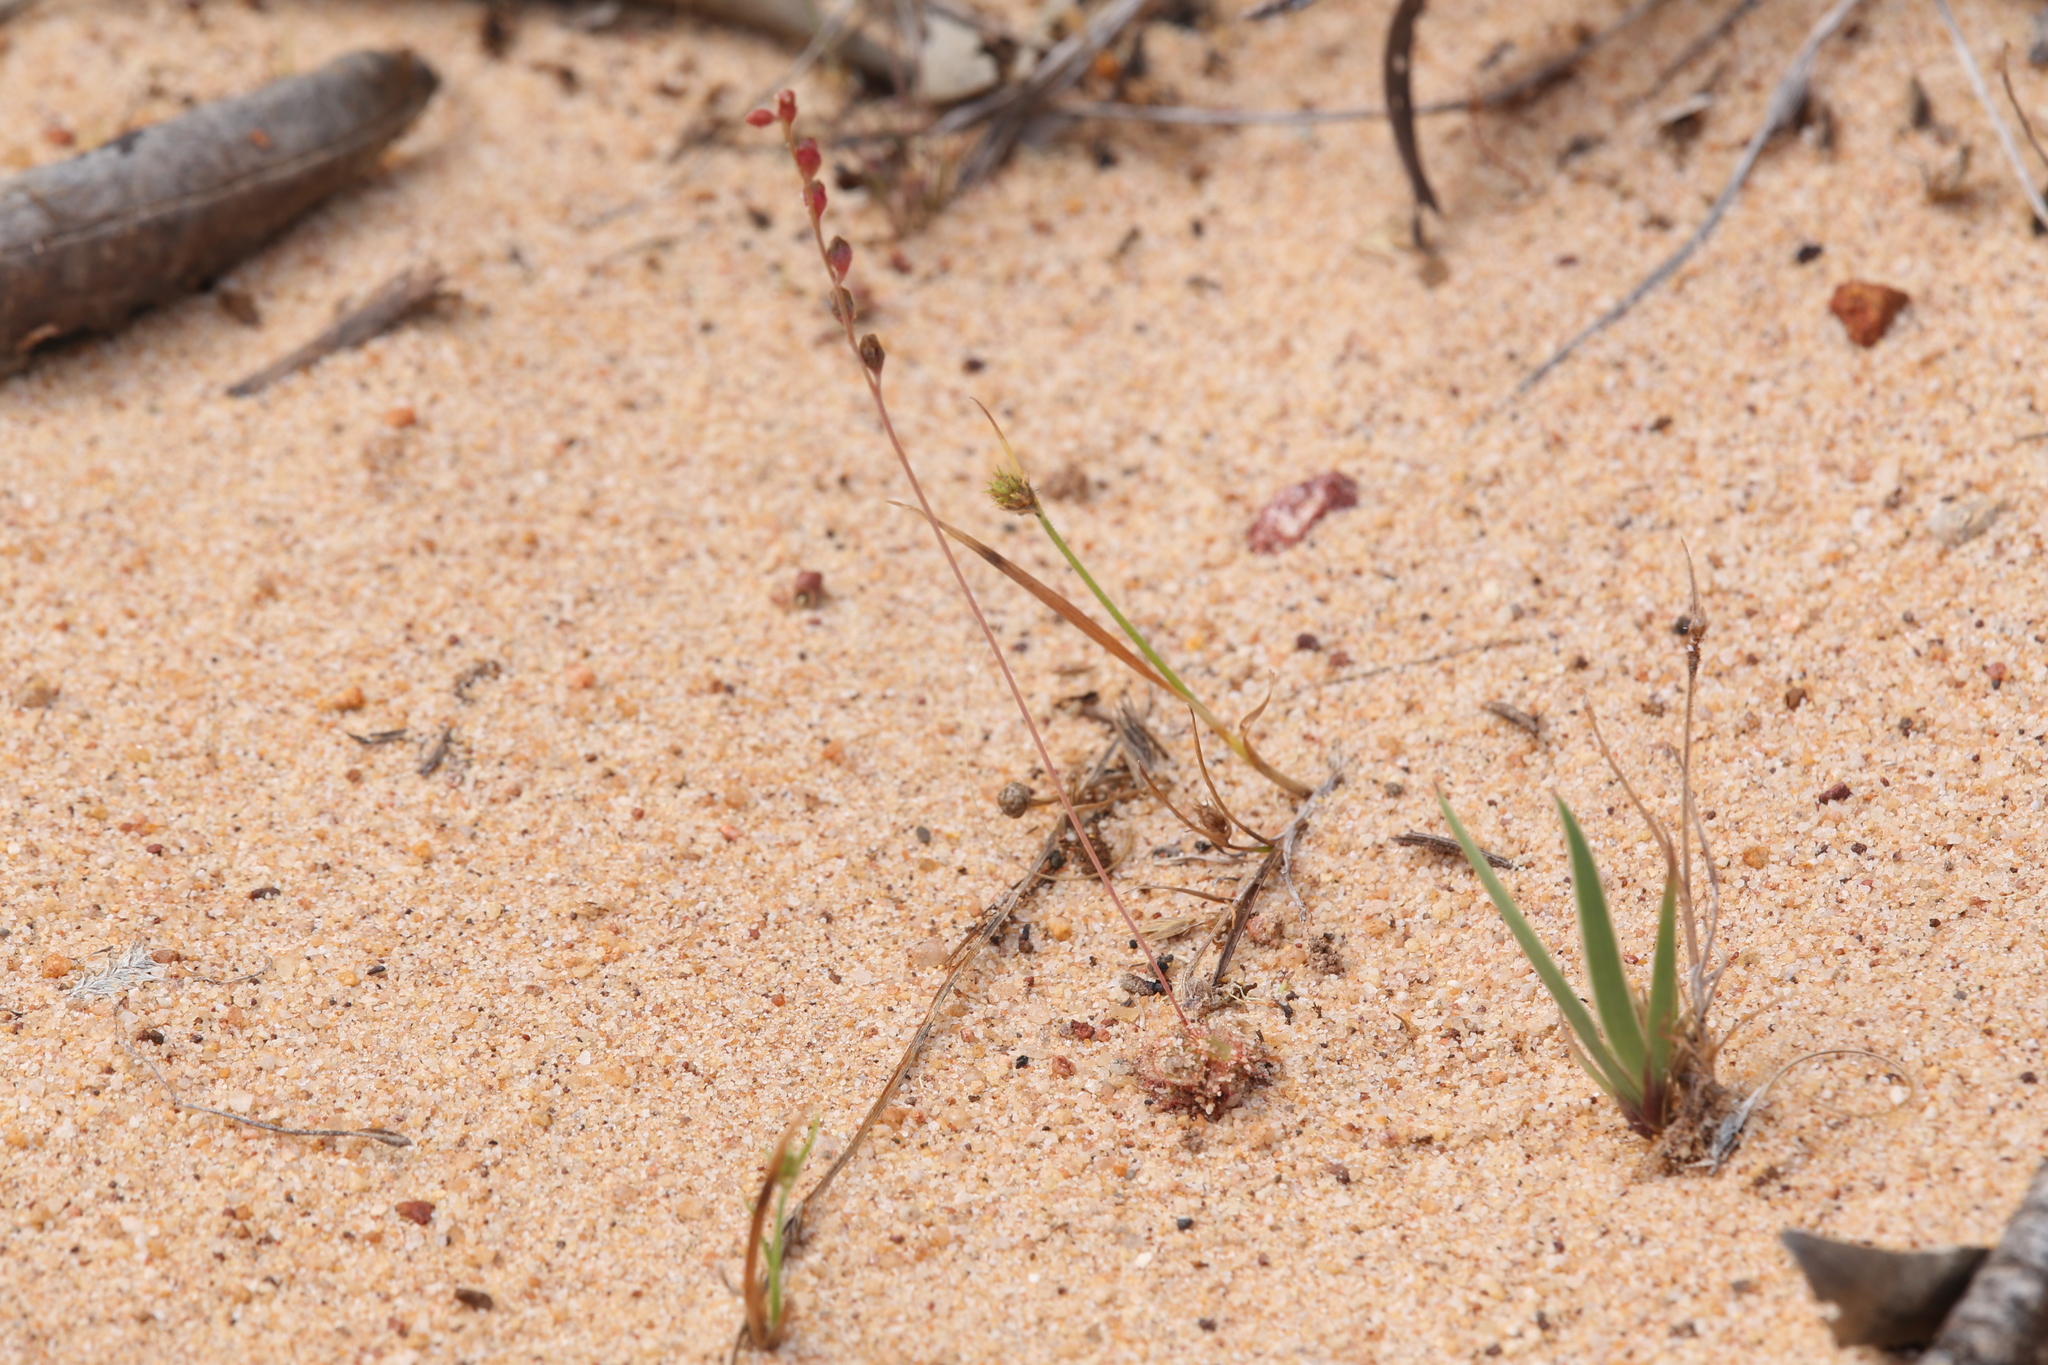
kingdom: Plantae
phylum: Tracheophyta
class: Magnoliopsida
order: Caryophyllales
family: Droseraceae
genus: Drosera
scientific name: Drosera spatulata
